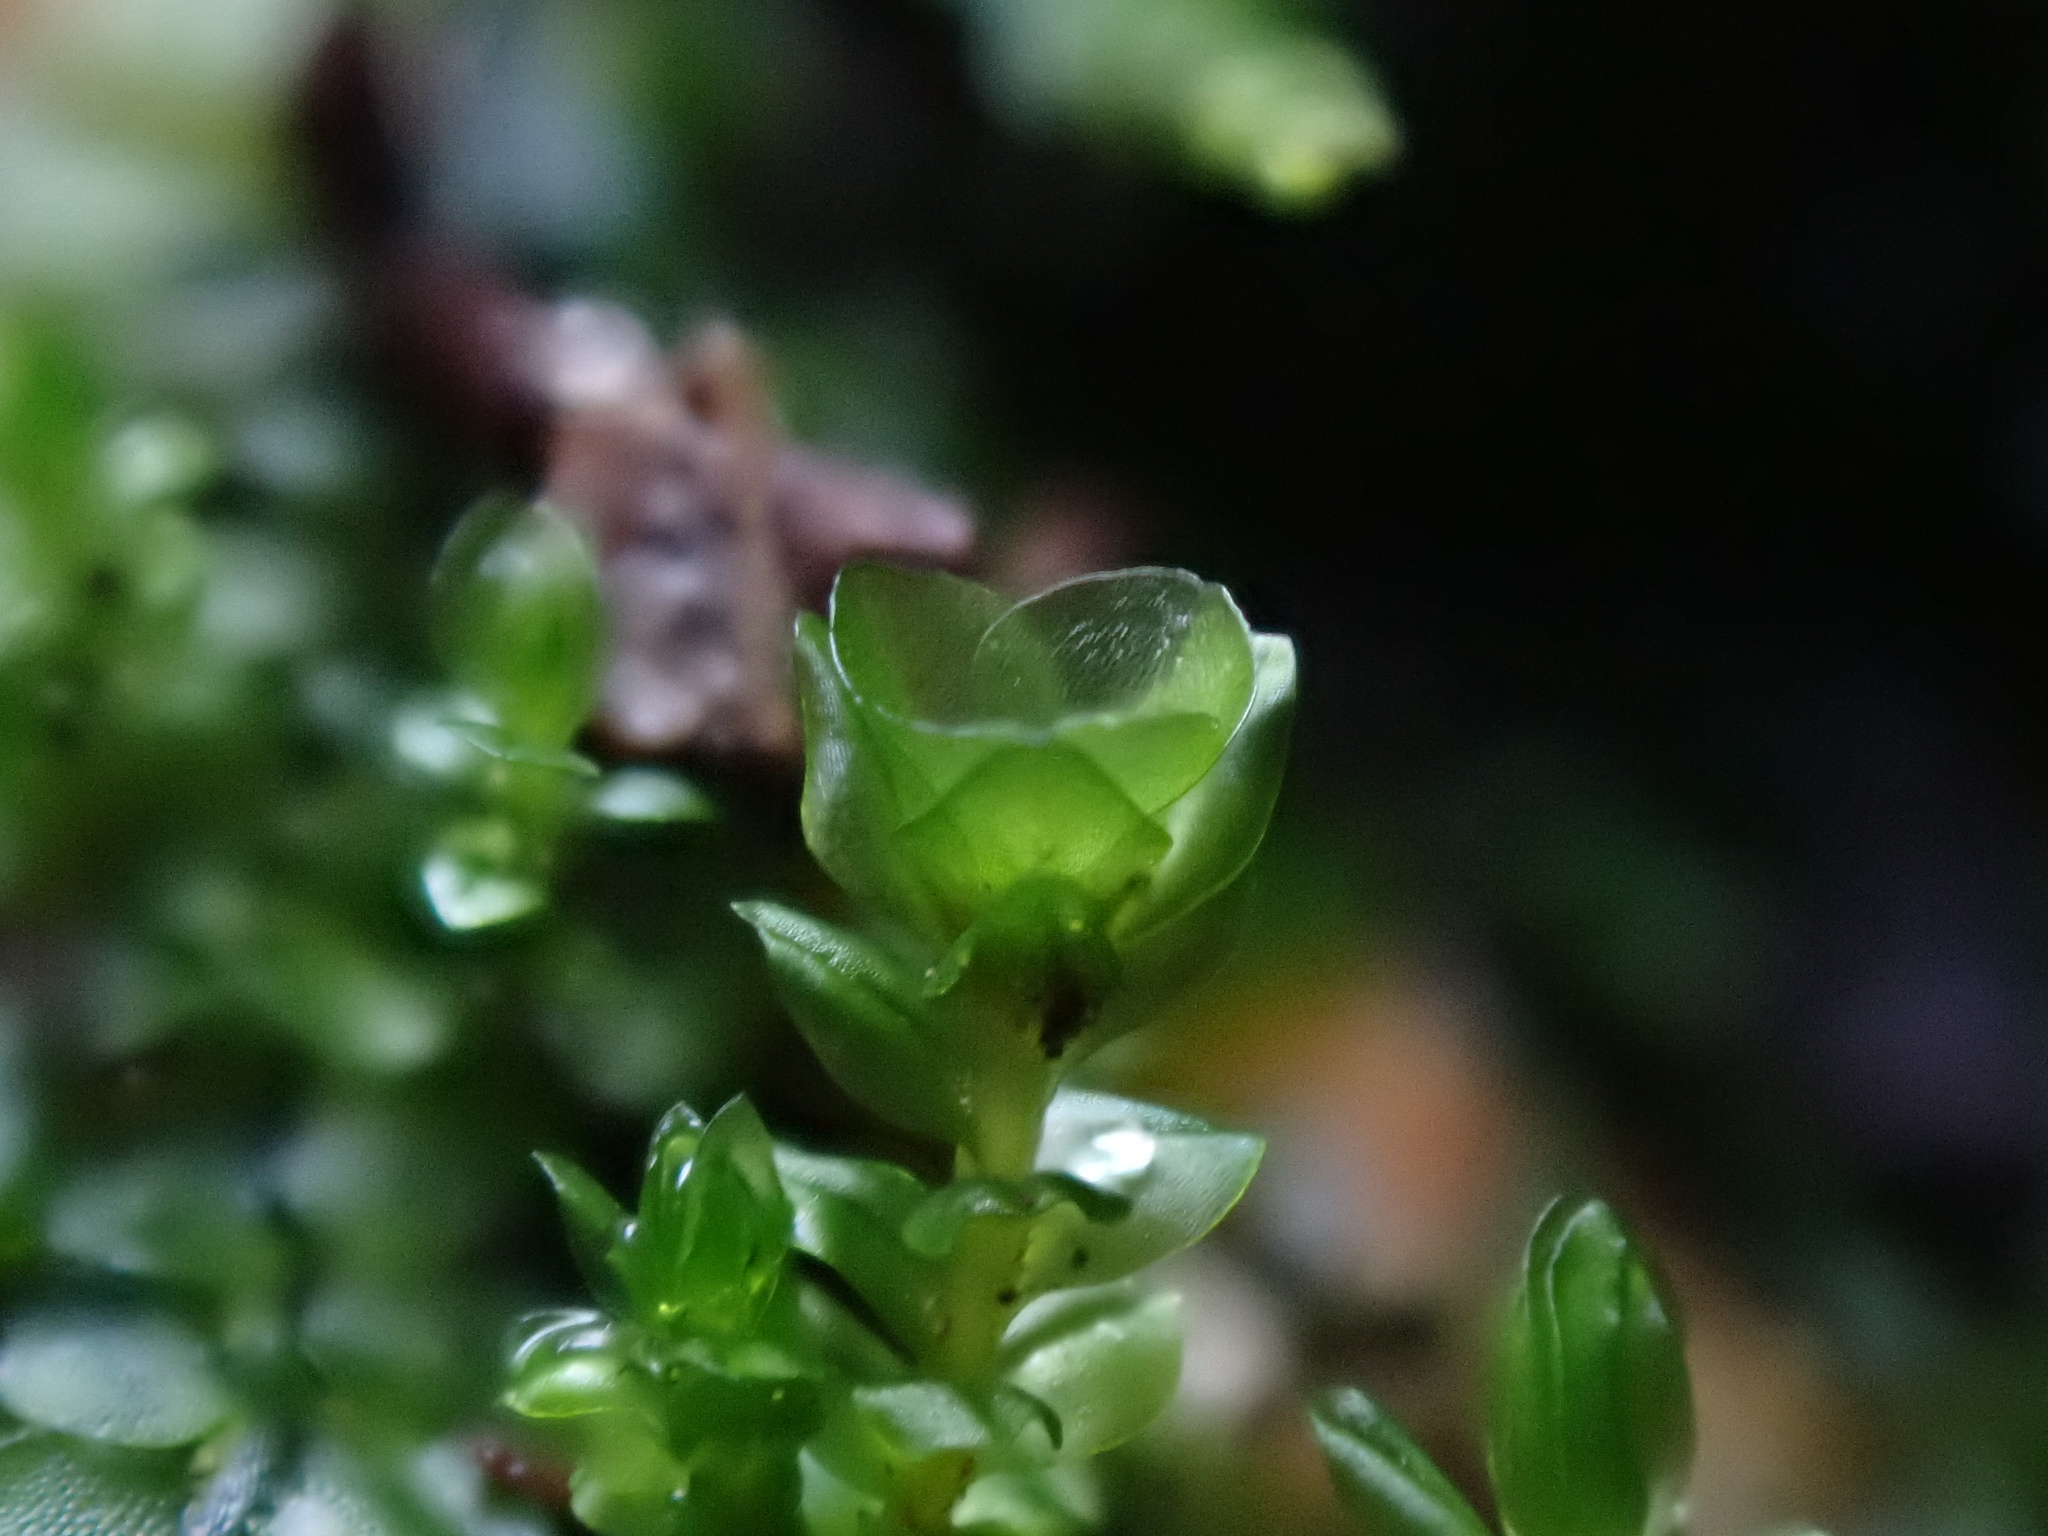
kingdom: Plantae
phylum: Bryophyta
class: Polytrichopsida
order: Tetraphidales
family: Tetraphidaceae
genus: Tetraphis
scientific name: Tetraphis pellucida
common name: Common four-toothed moss
